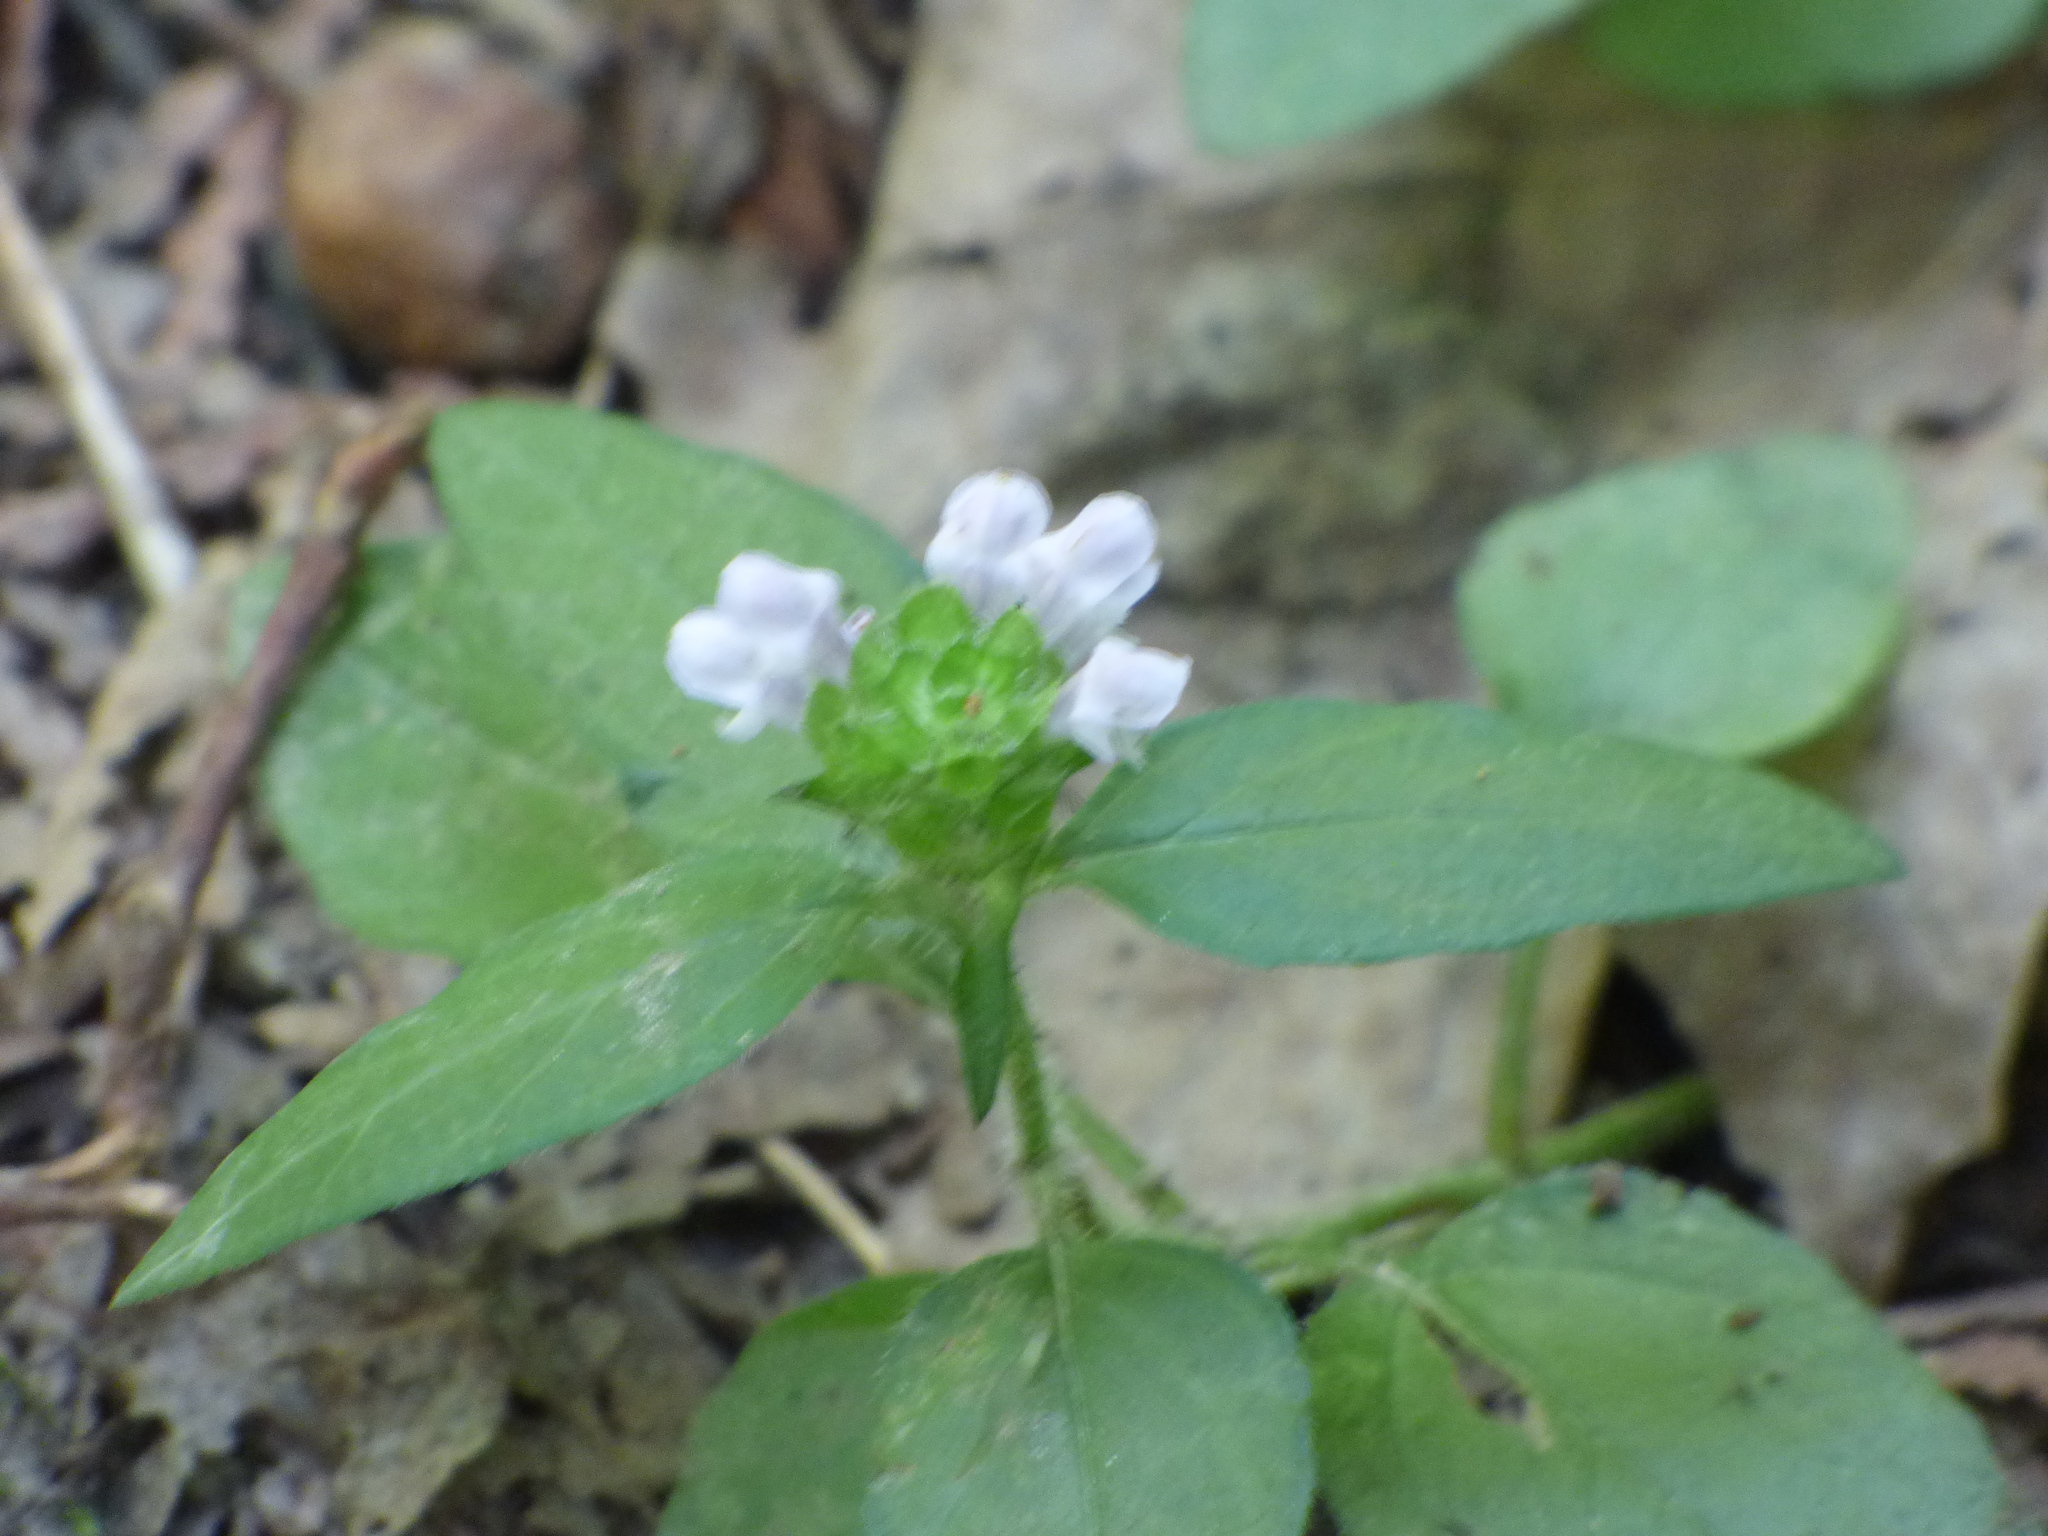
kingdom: Plantae
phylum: Tracheophyta
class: Magnoliopsida
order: Lamiales
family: Lamiaceae
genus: Prunella
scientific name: Prunella vulgaris
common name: Heal-all
